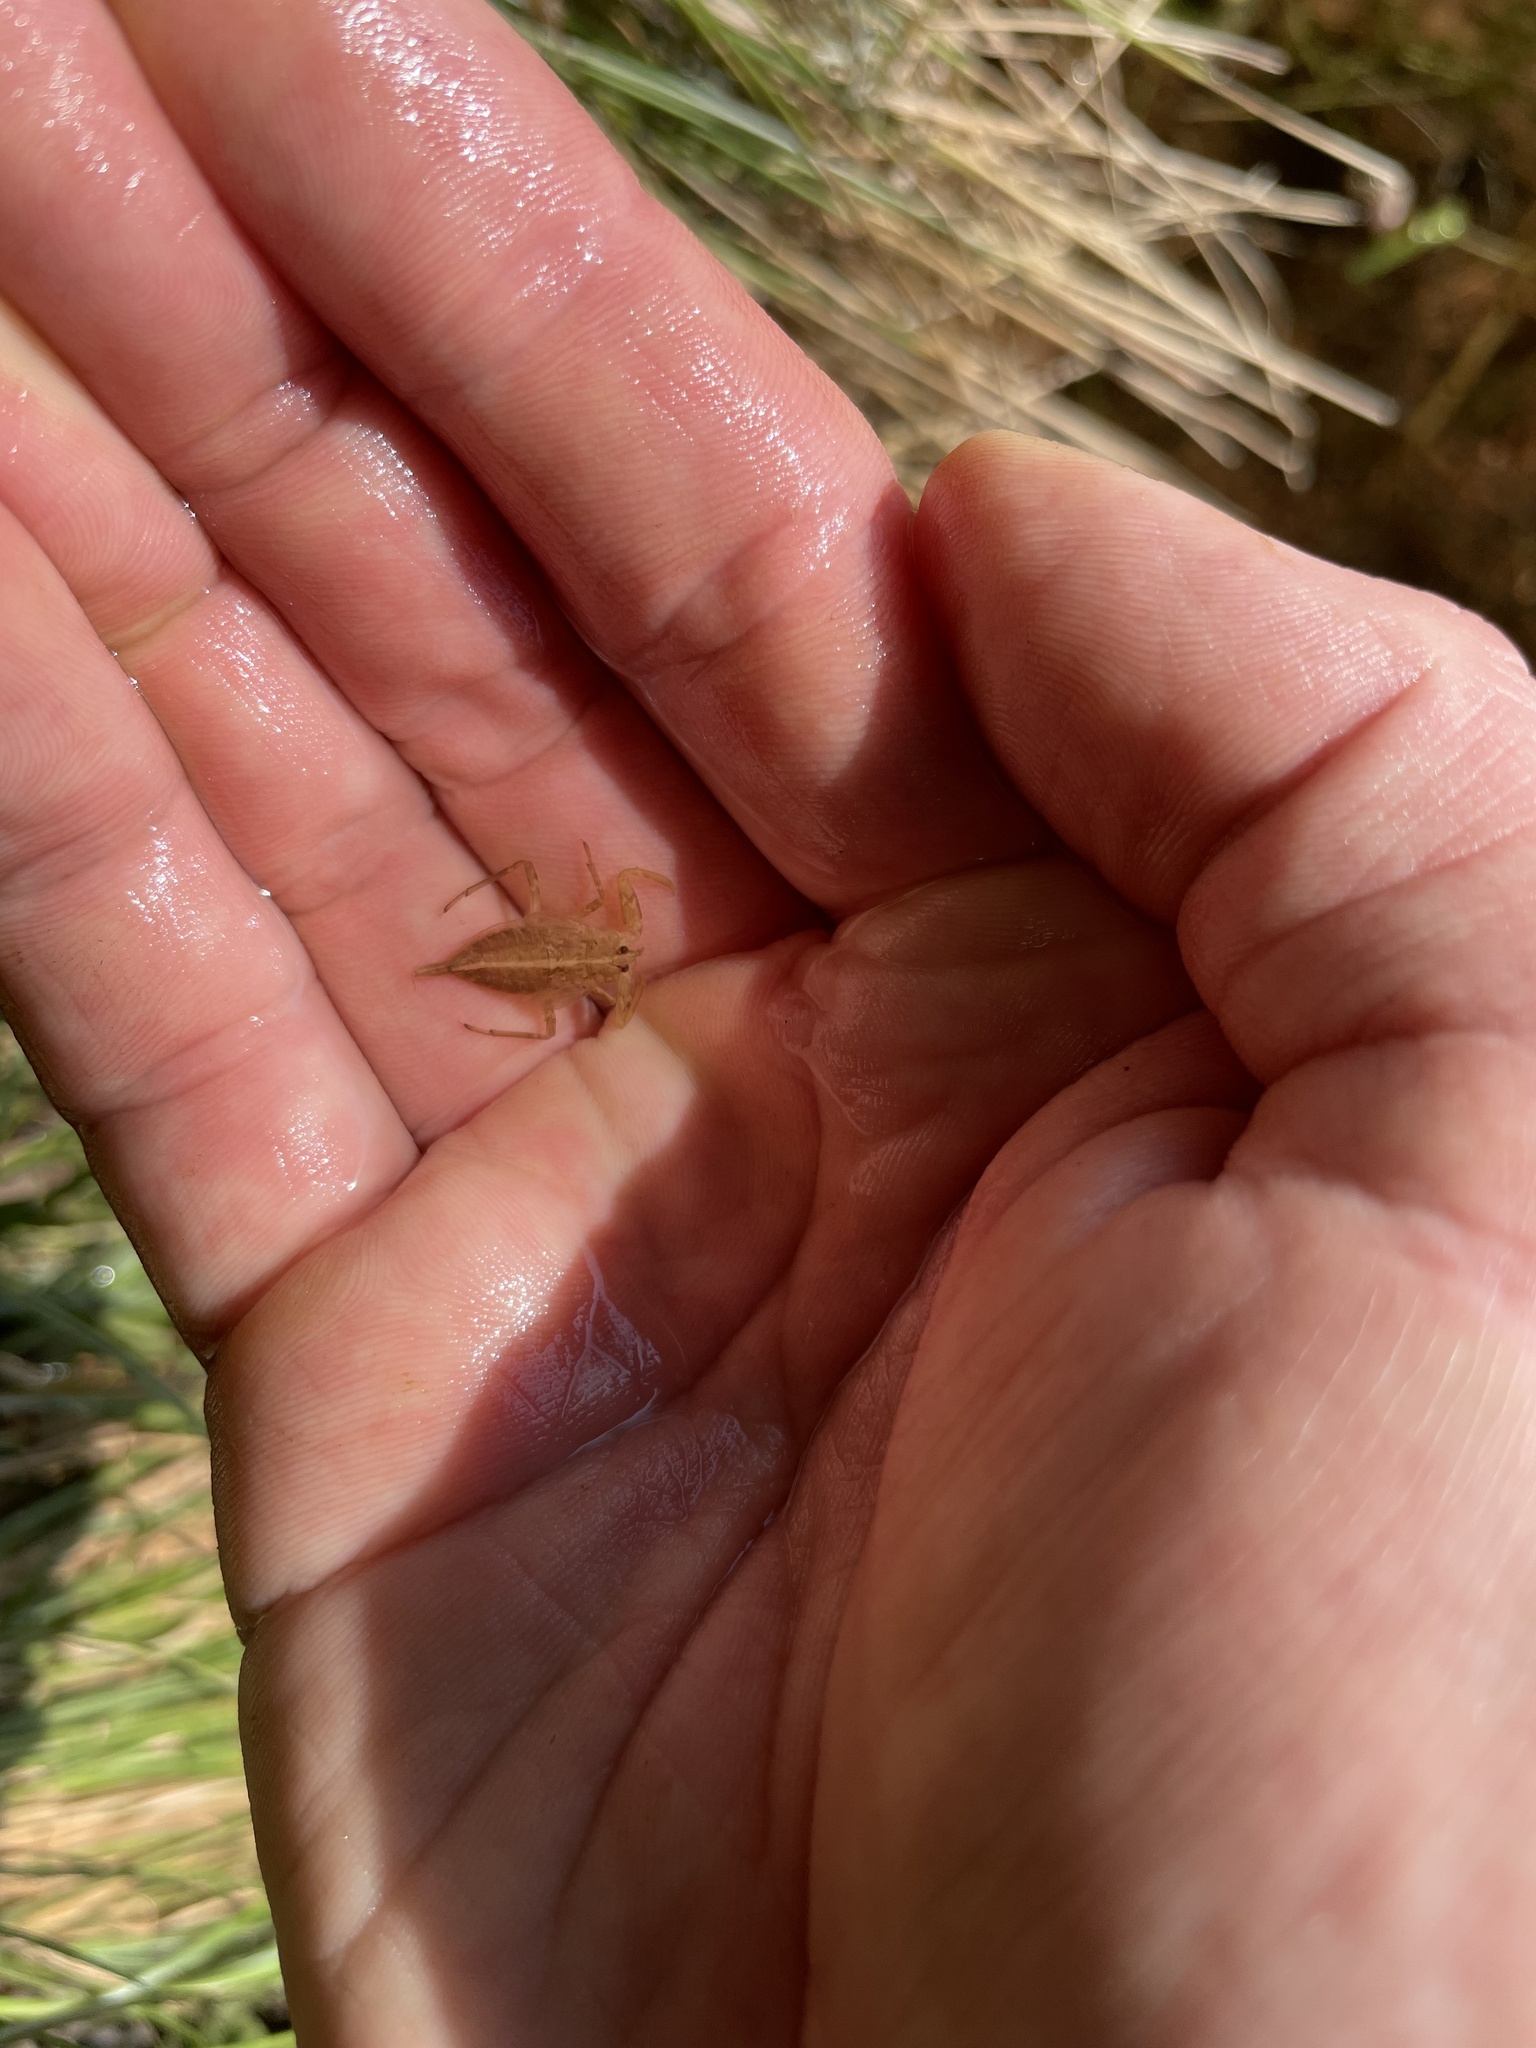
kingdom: Animalia
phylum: Arthropoda
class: Insecta
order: Hemiptera
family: Nepidae
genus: Nepa
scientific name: Nepa cinerea
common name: Water scorpion
